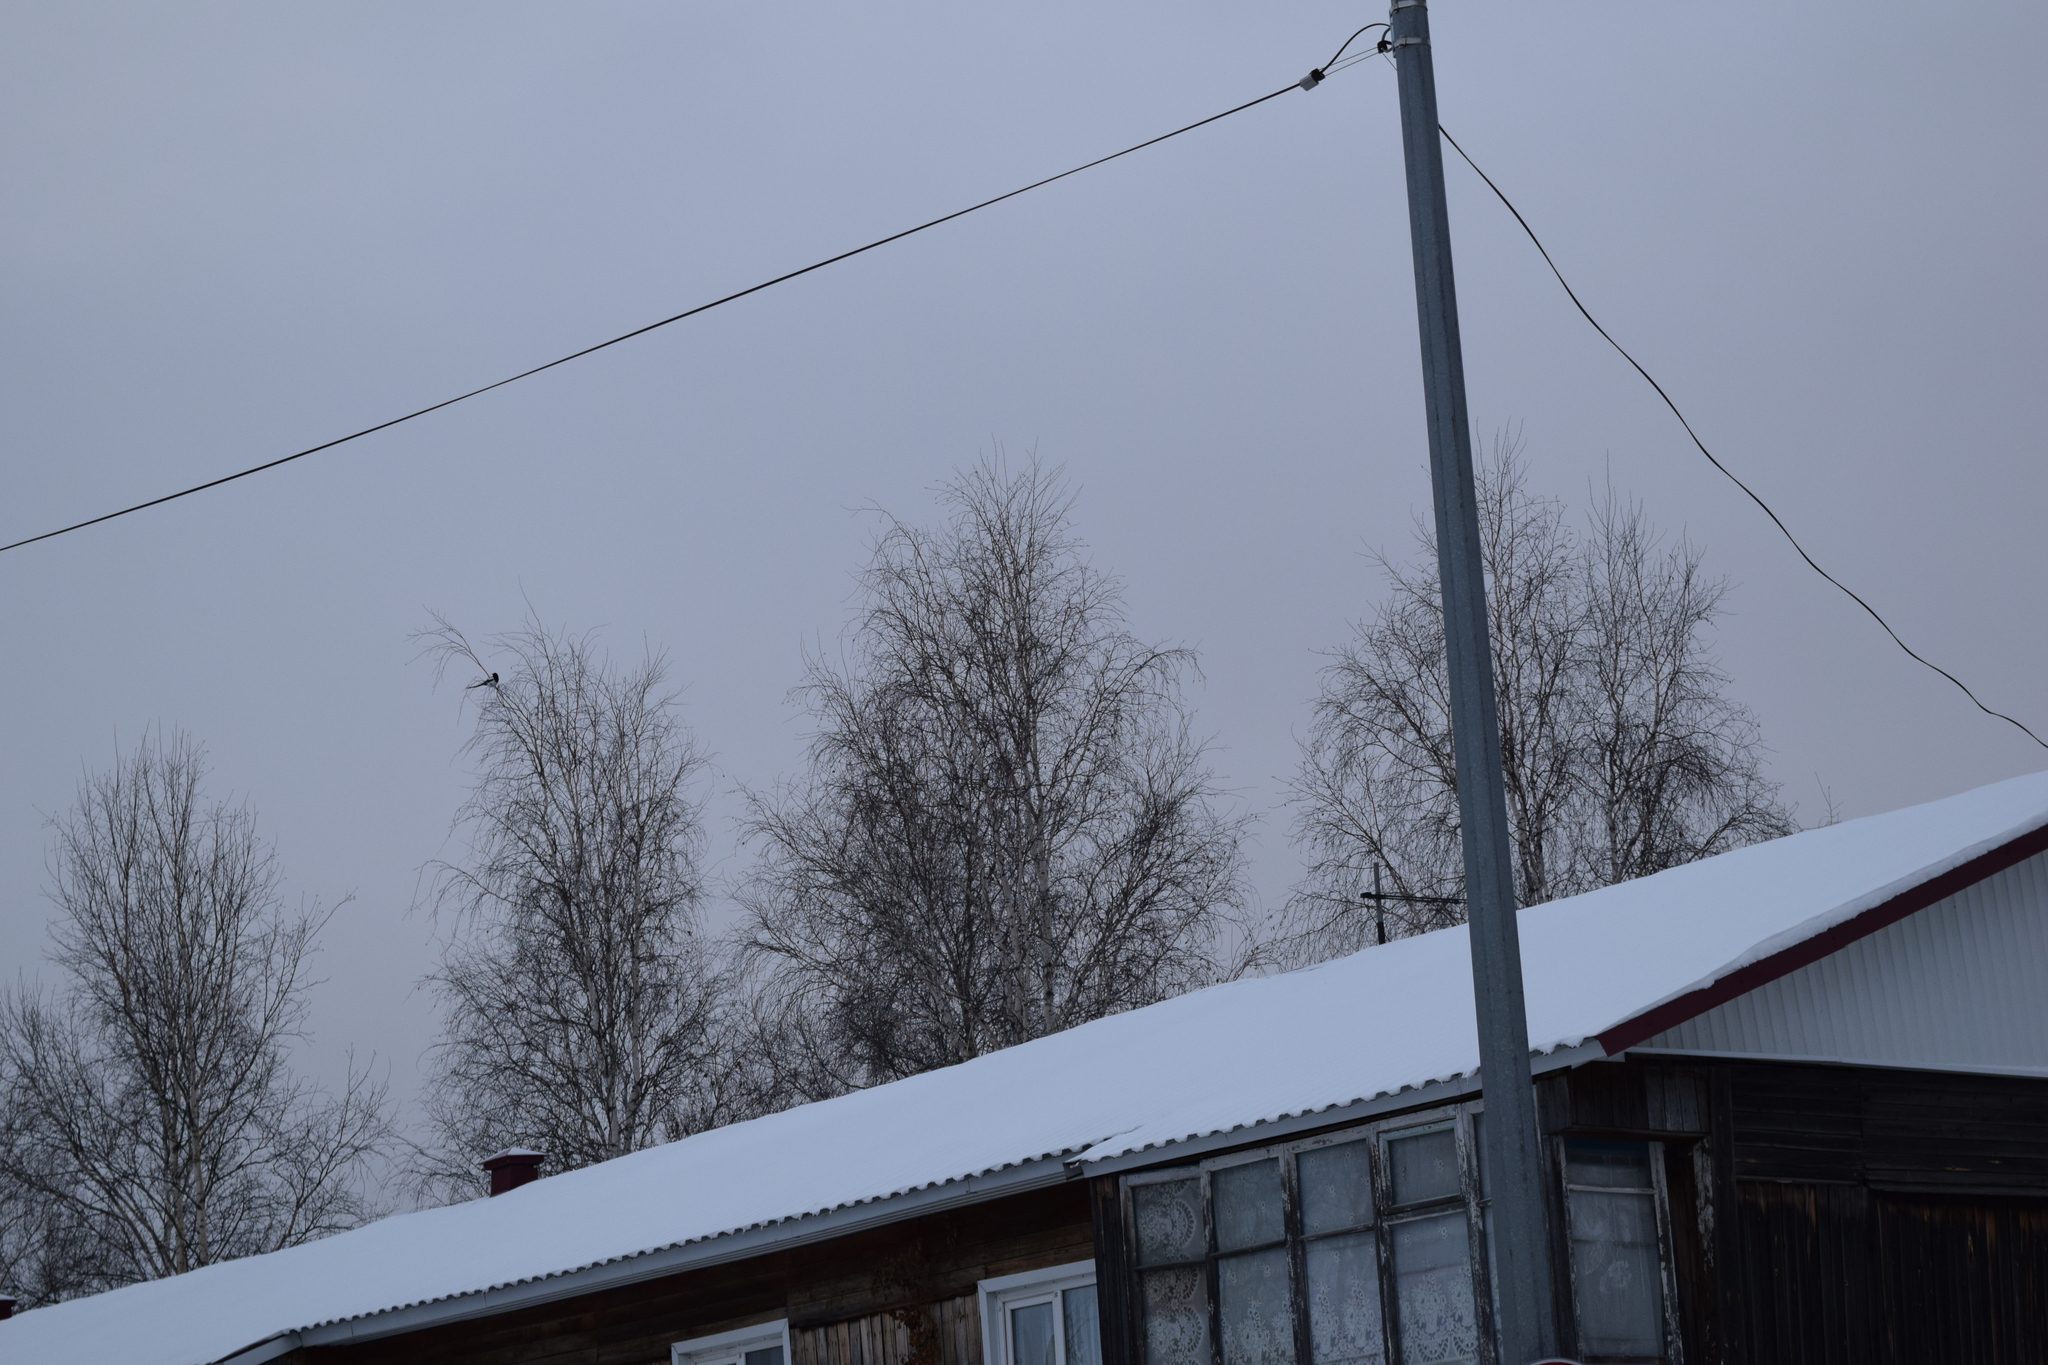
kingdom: Animalia
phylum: Chordata
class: Aves
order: Passeriformes
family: Corvidae
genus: Pica
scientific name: Pica pica
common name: Eurasian magpie
